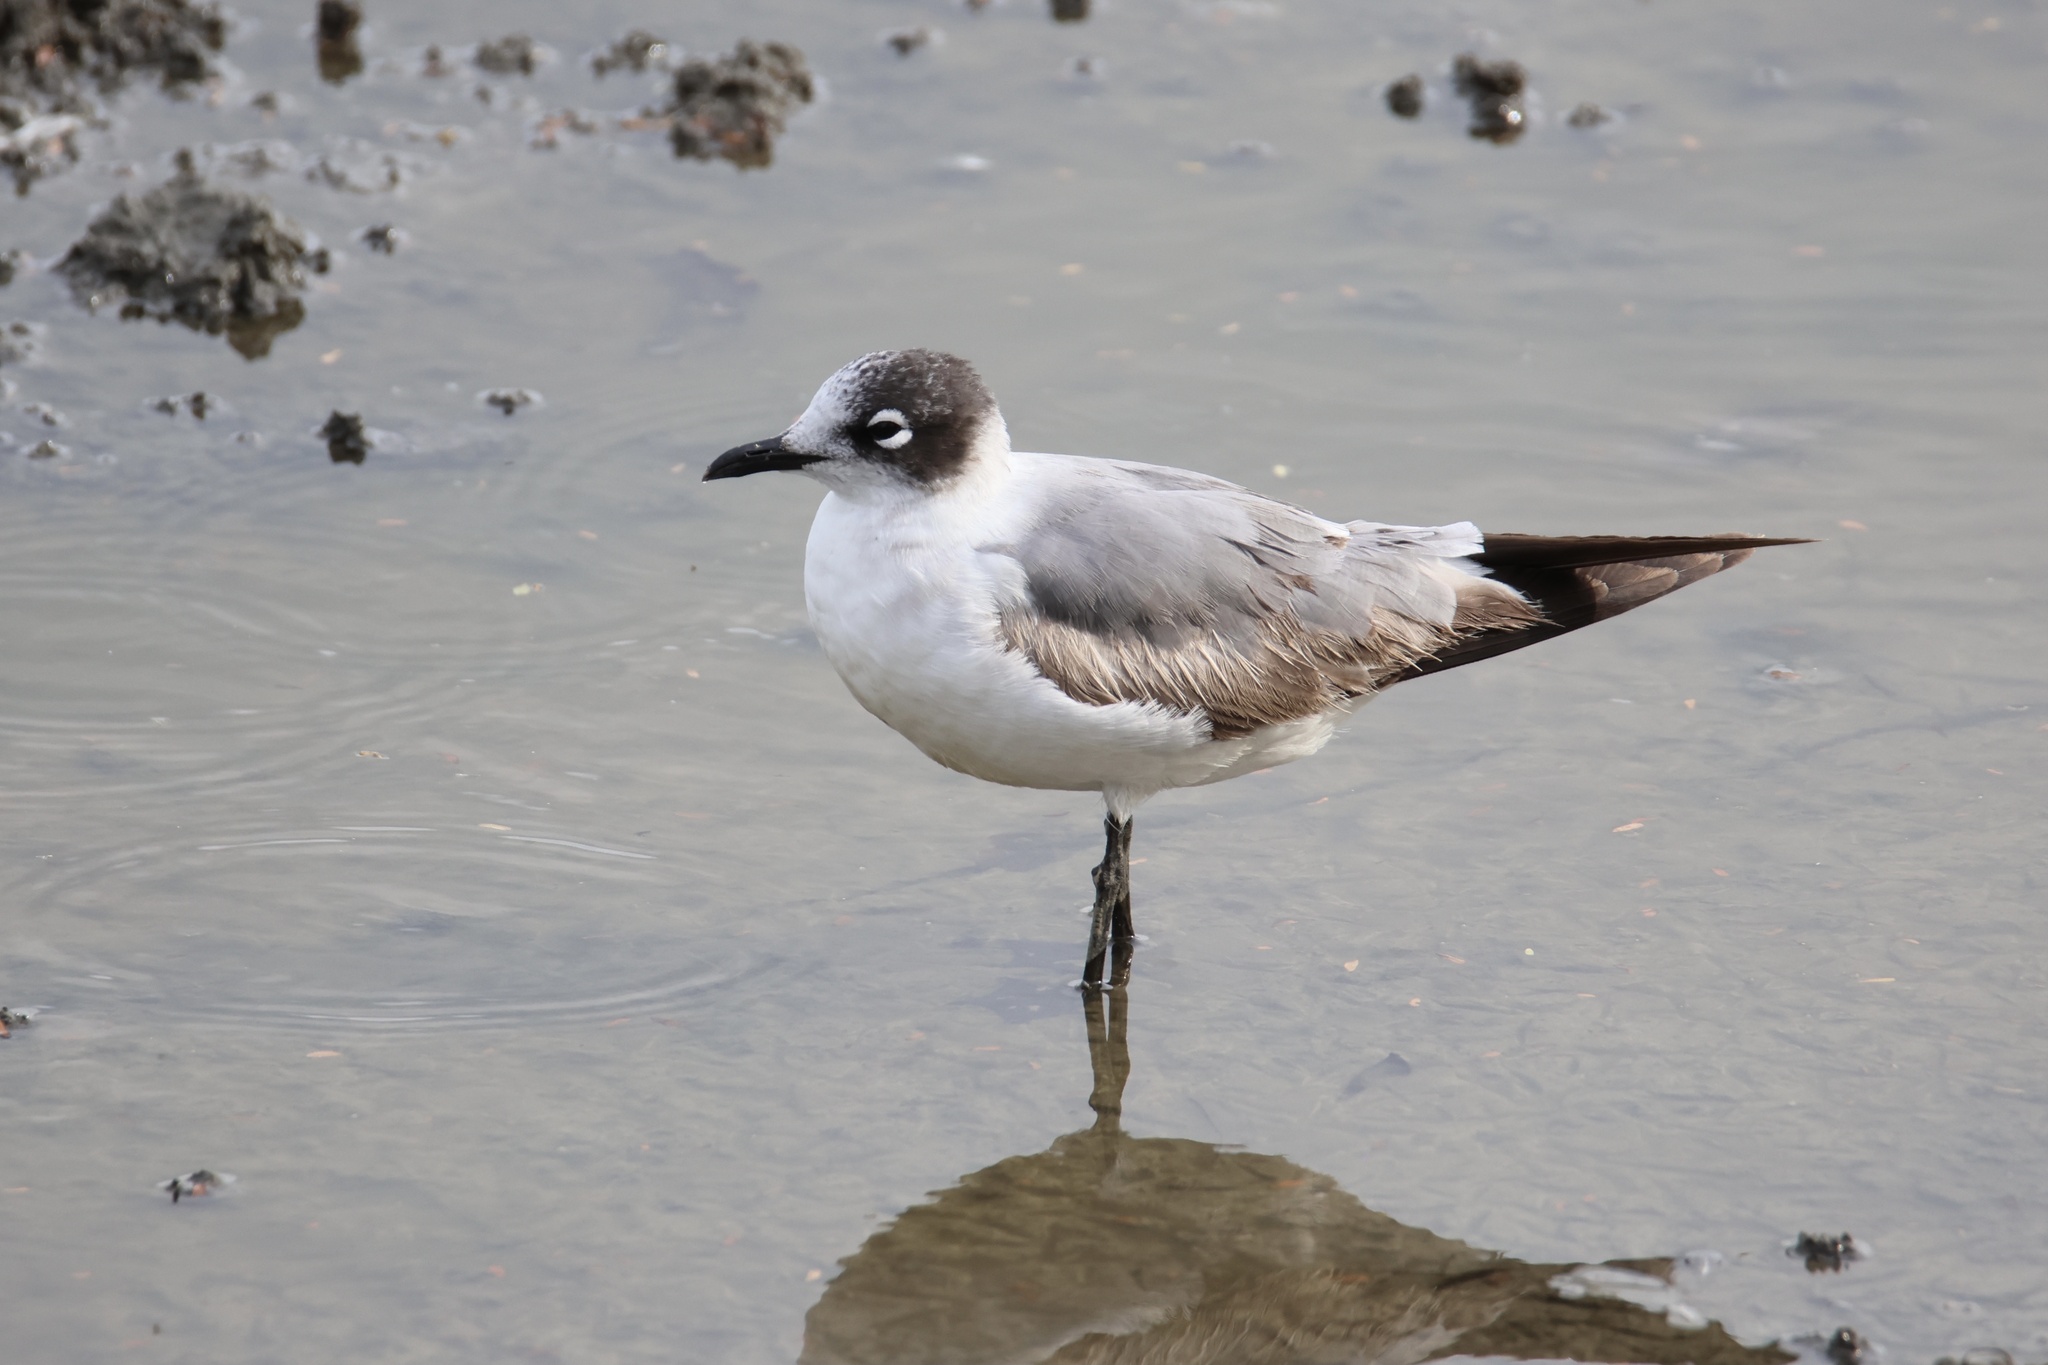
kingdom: Animalia
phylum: Chordata
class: Aves
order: Charadriiformes
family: Laridae
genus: Leucophaeus
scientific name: Leucophaeus pipixcan
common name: Franklin's gull
